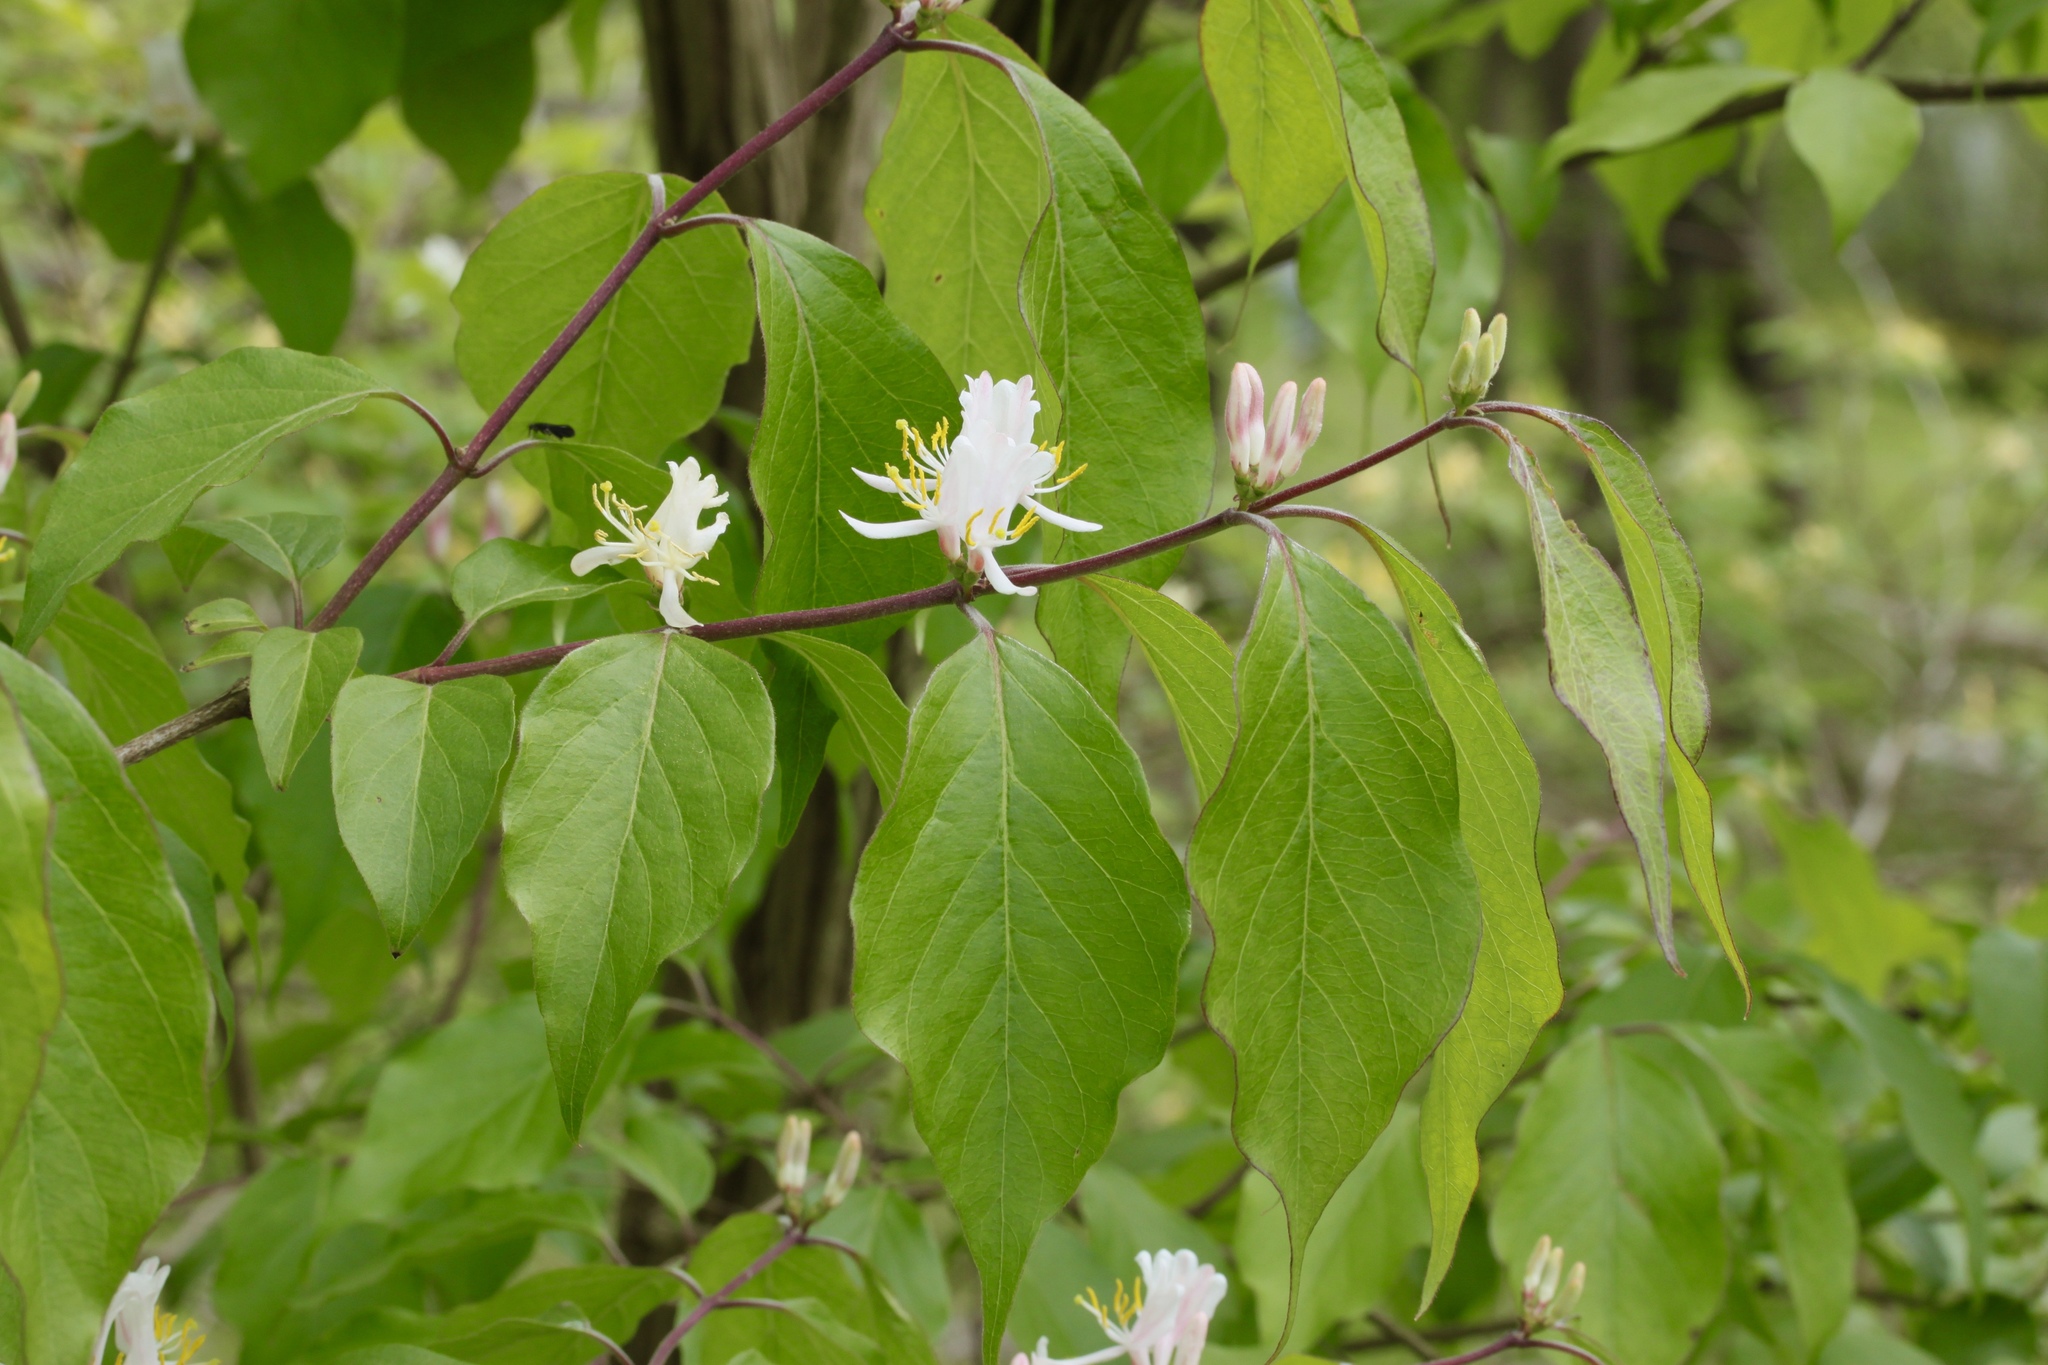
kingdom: Plantae
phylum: Tracheophyta
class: Magnoliopsida
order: Dipsacales
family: Caprifoliaceae
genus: Lonicera
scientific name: Lonicera maackii
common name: Amur honeysuckle
